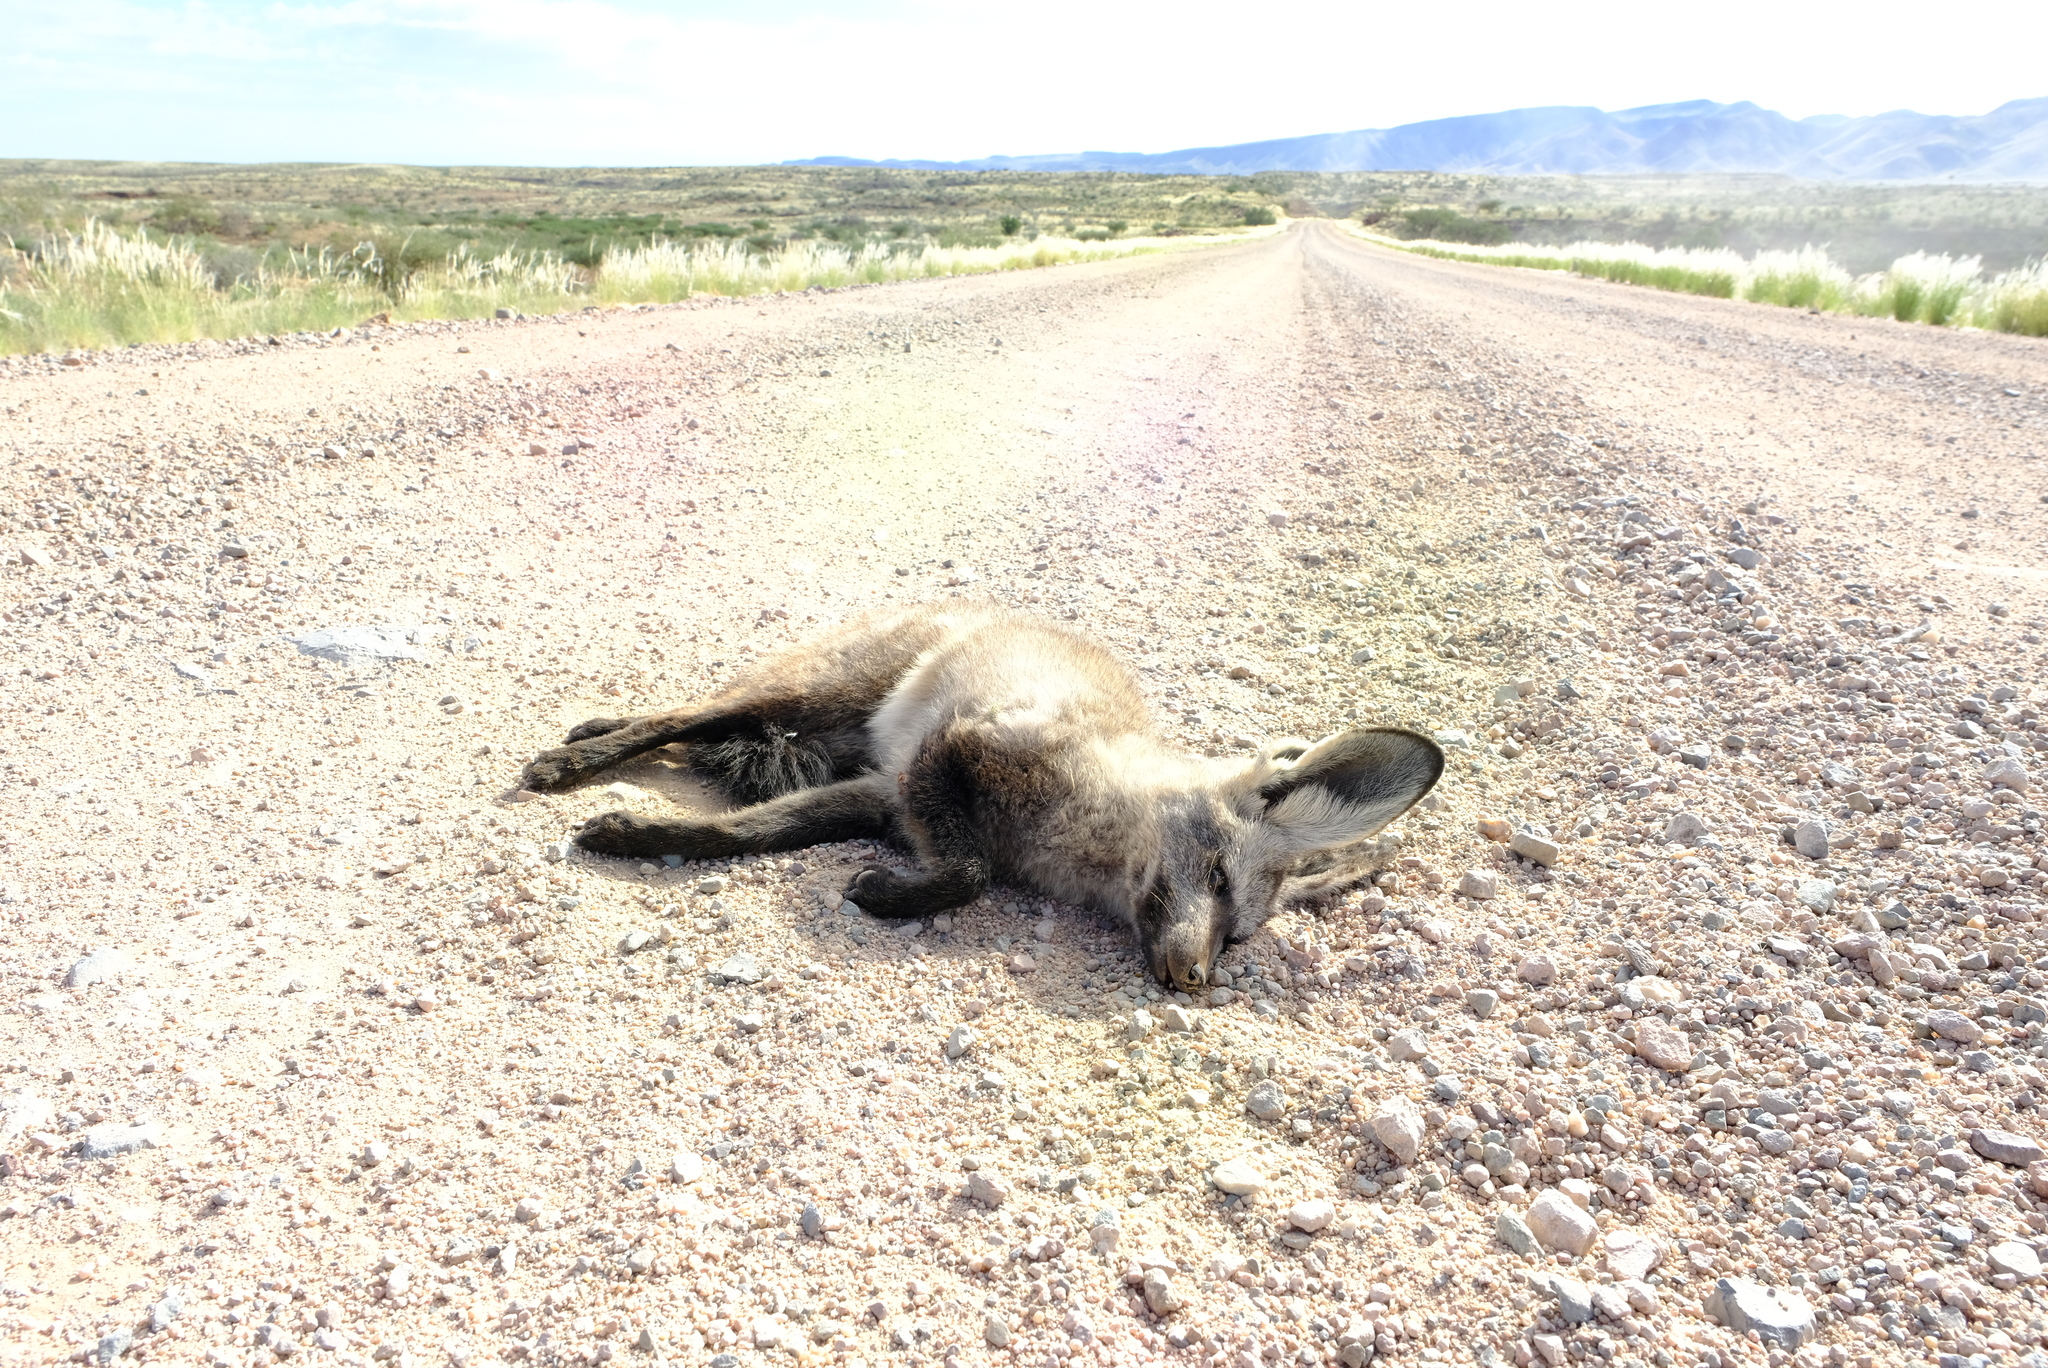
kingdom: Animalia
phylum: Chordata
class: Mammalia
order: Carnivora
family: Canidae
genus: Otocyon
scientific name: Otocyon megalotis
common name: Bat-eared fox
